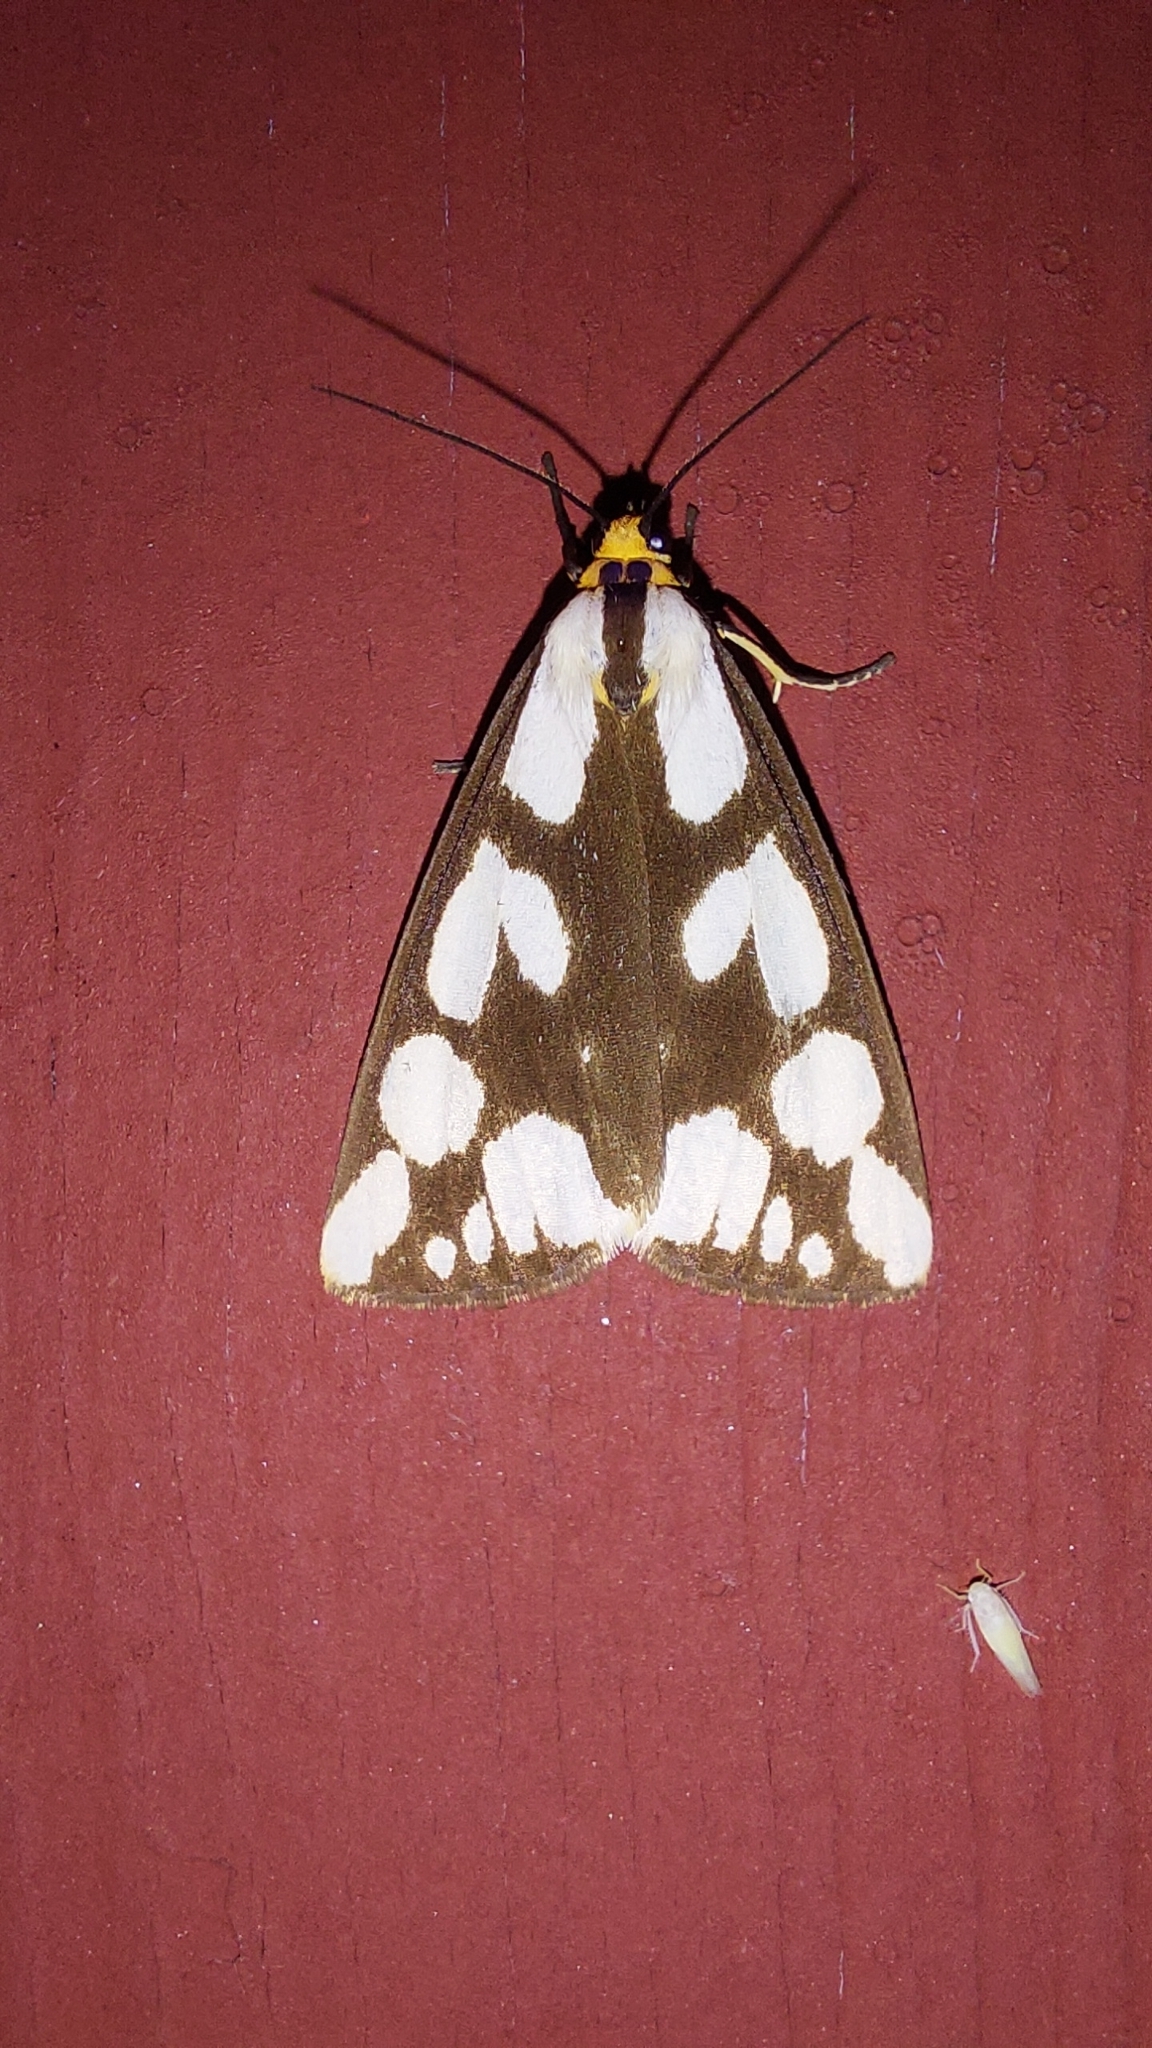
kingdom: Animalia
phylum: Arthropoda
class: Insecta
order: Lepidoptera
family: Erebidae
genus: Haploa
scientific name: Haploa confusa
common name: Confused haploa moth
